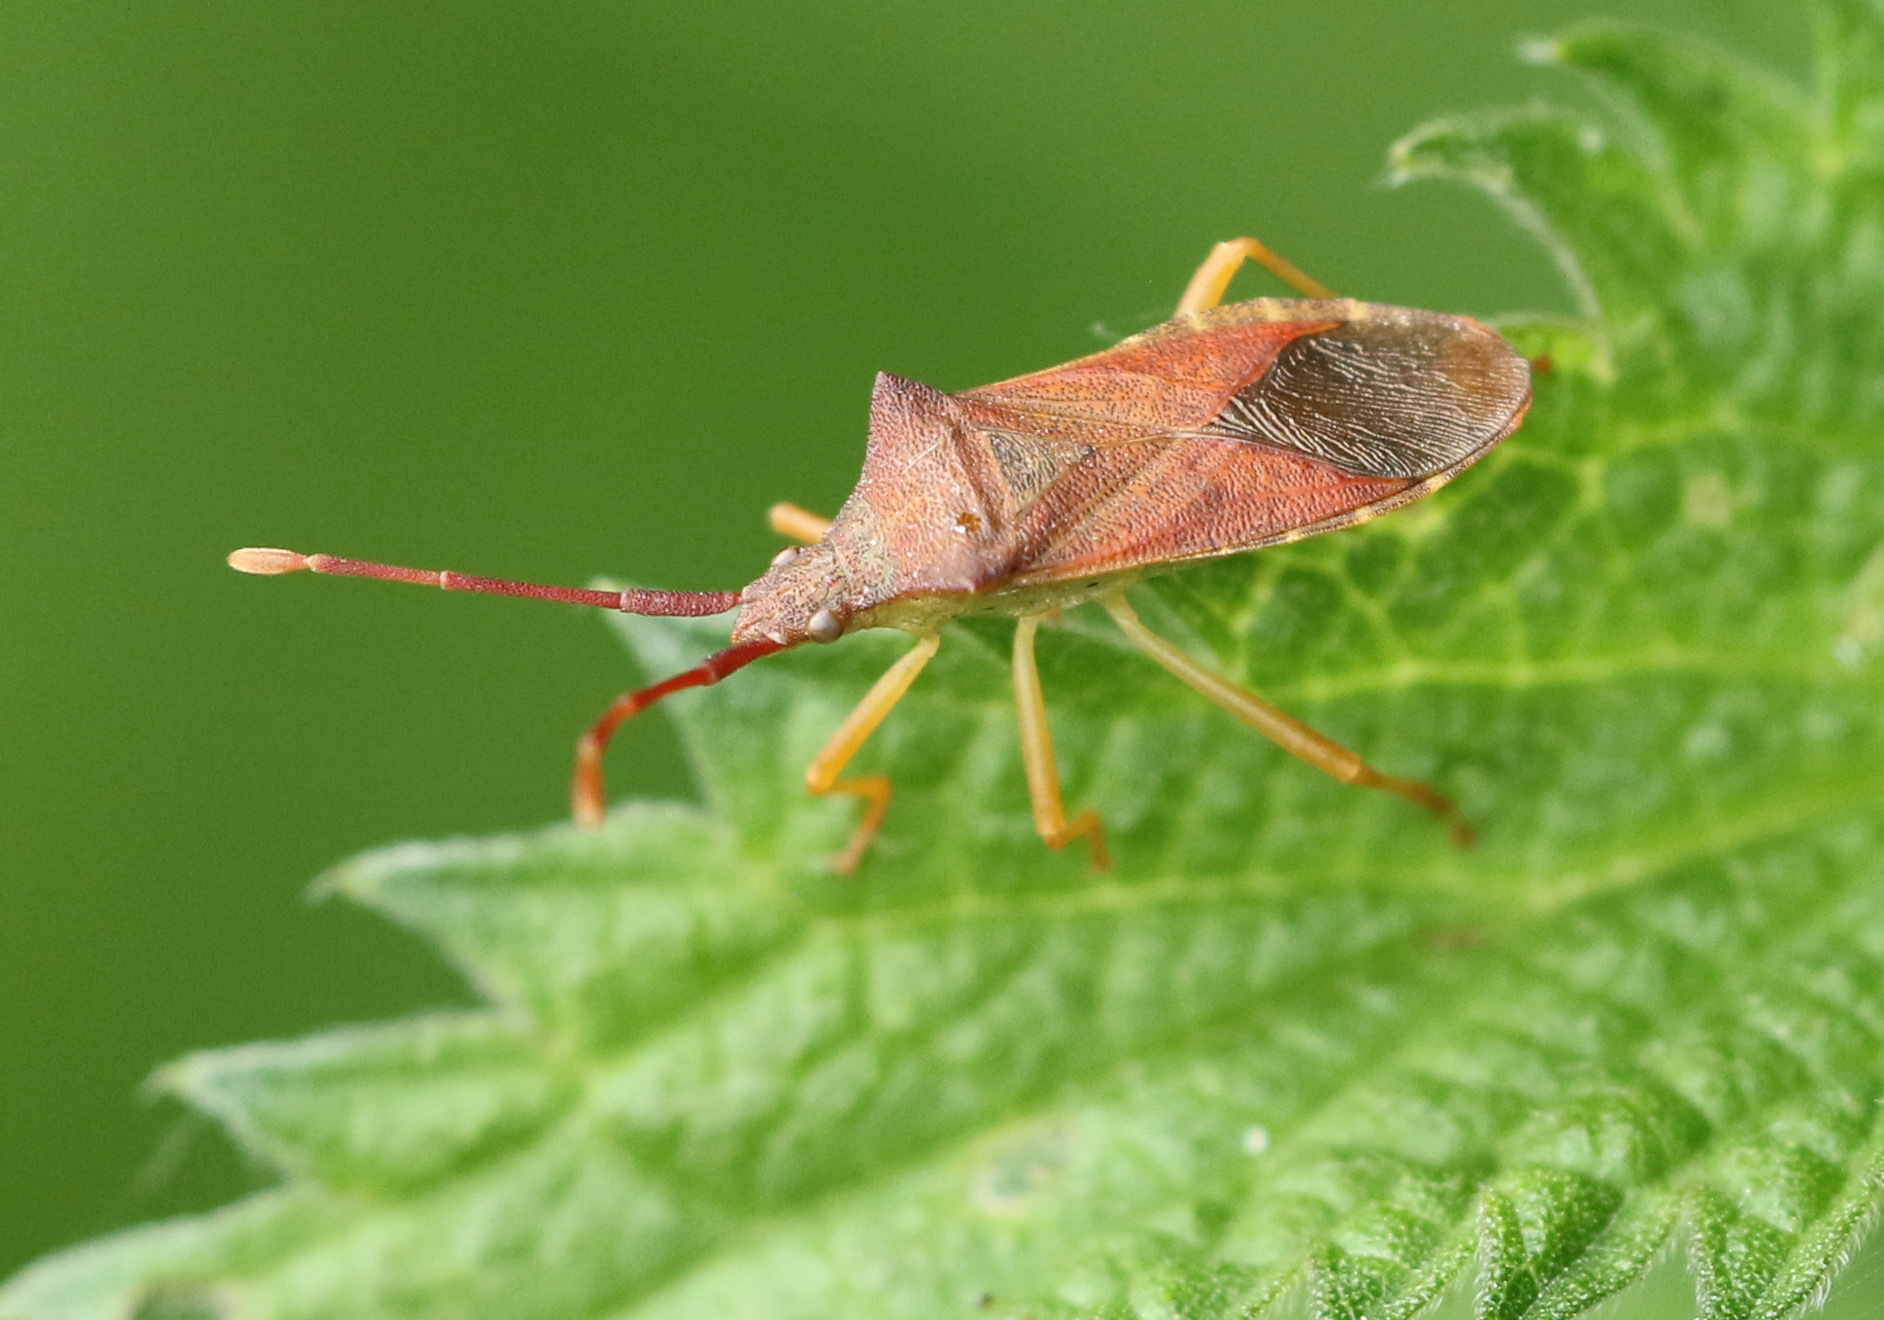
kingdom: Animalia
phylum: Arthropoda
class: Insecta
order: Hemiptera
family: Coreidae
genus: Gonocerus
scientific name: Gonocerus acuteangulatus
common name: Box bug
